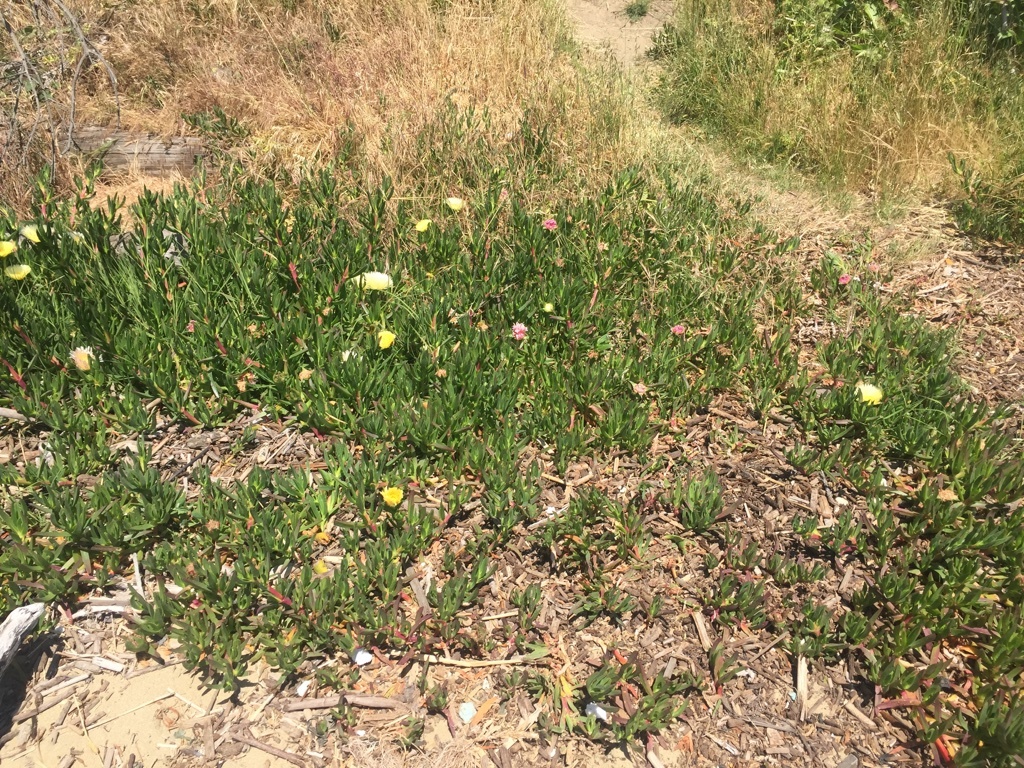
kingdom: Plantae
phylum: Tracheophyta
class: Magnoliopsida
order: Caryophyllales
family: Aizoaceae
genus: Carpobrotus
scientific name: Carpobrotus edulis
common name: Hottentot-fig
